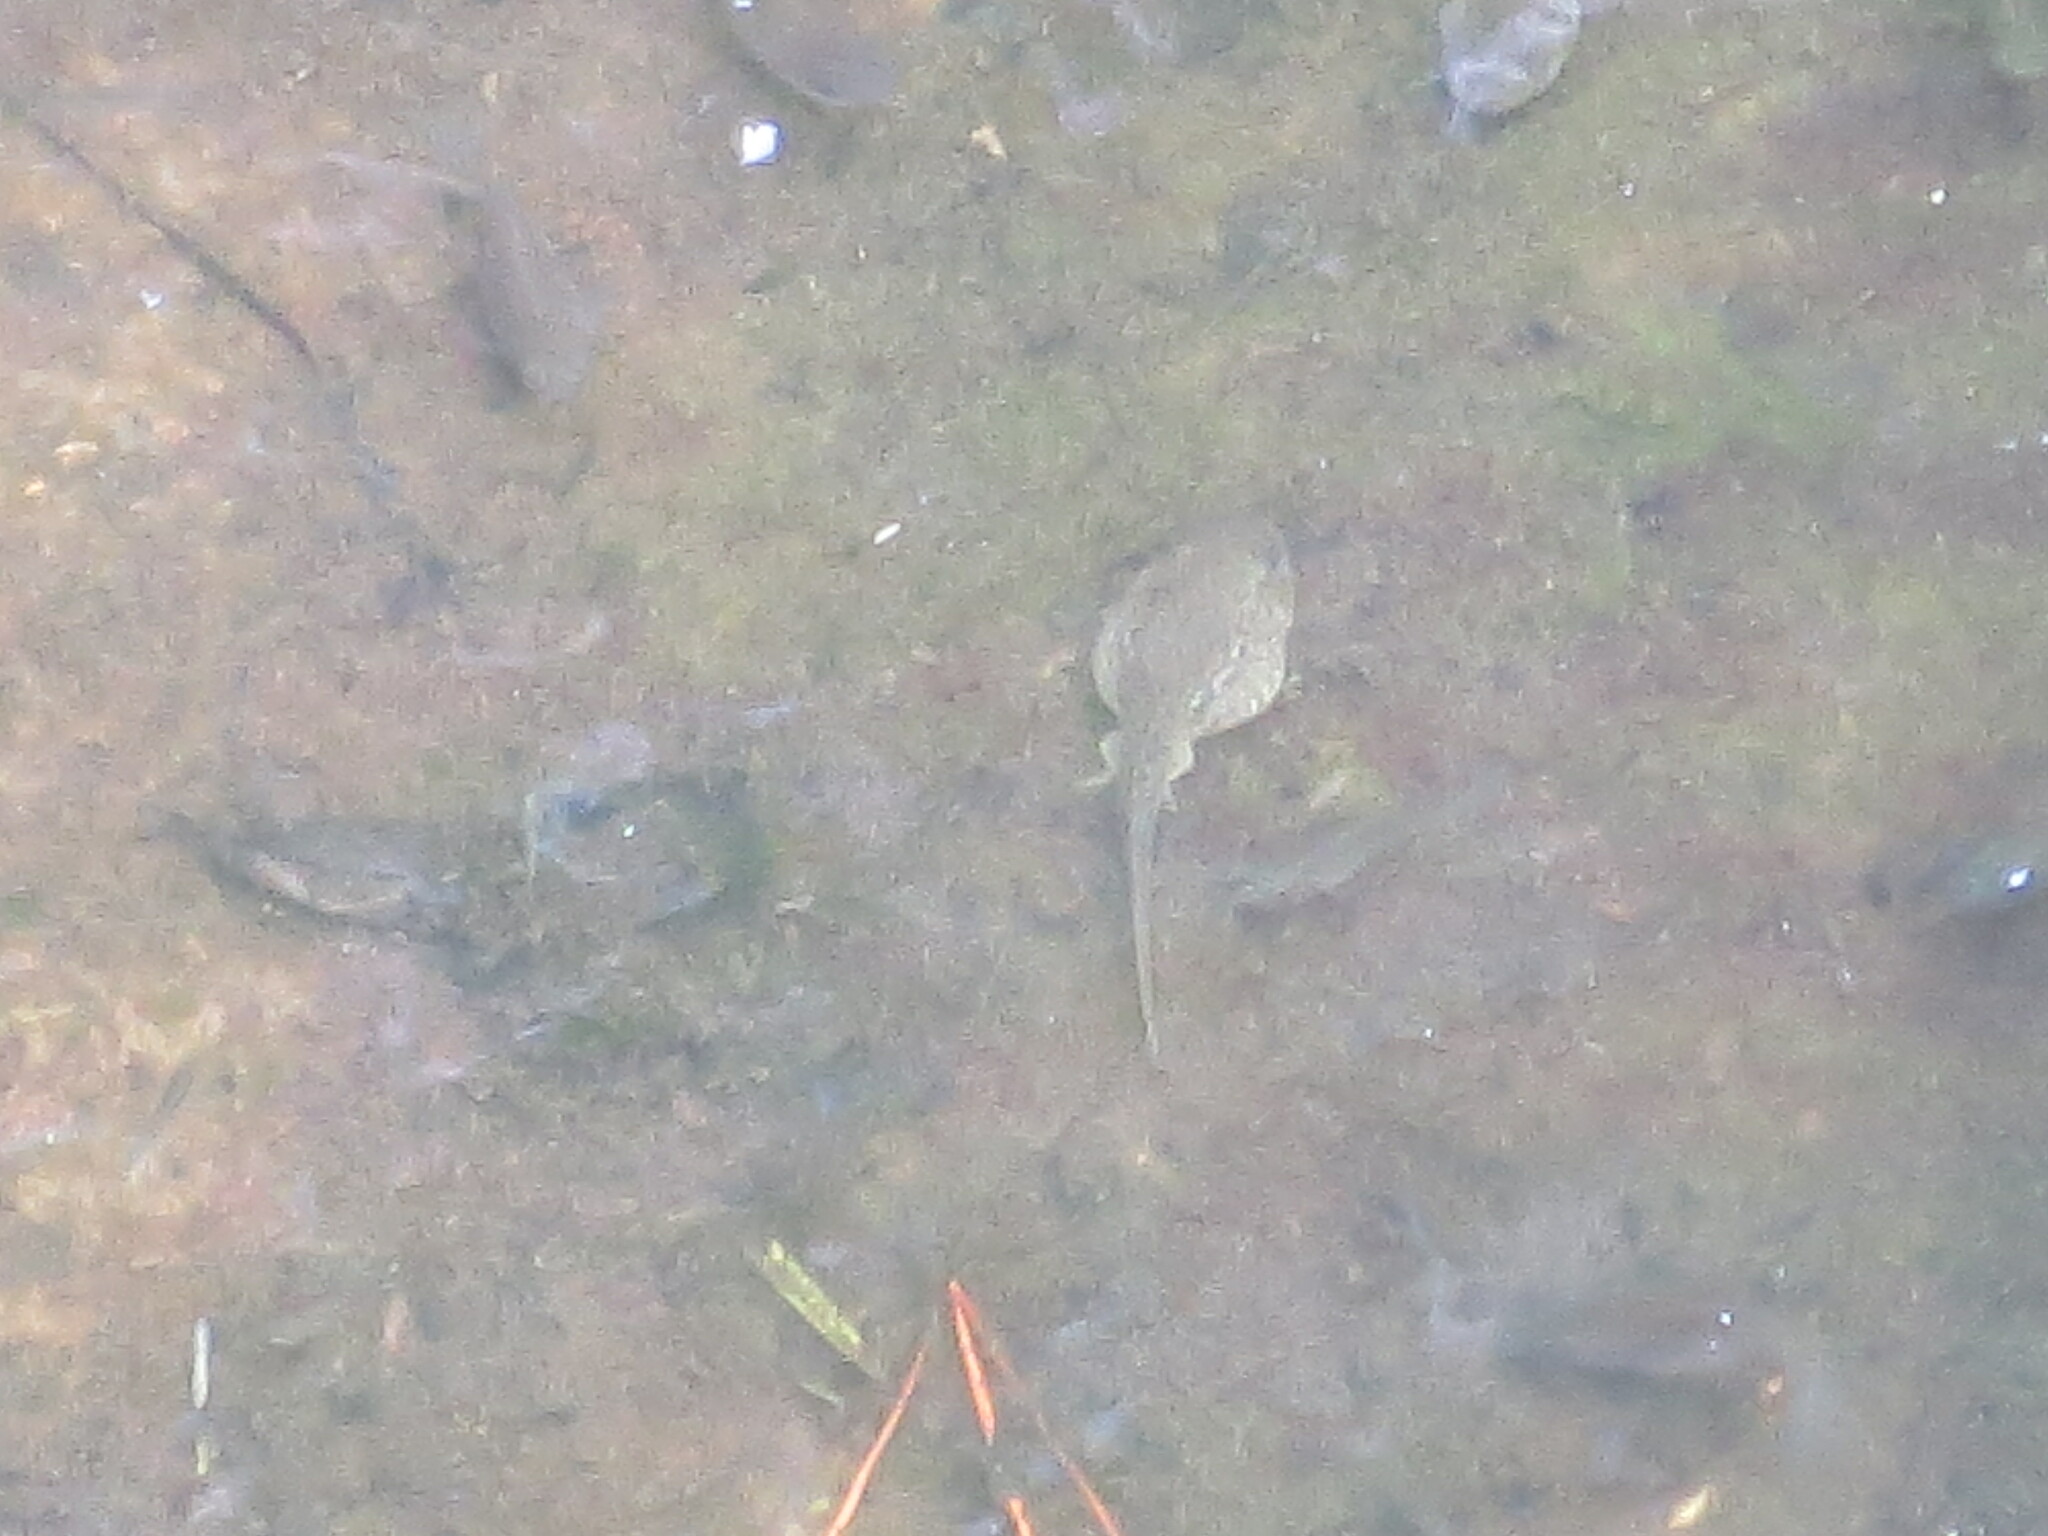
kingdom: Animalia
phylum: Chordata
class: Amphibia
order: Anura
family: Ranidae
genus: Lithobates
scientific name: Lithobates catesbeianus
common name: American bullfrog
